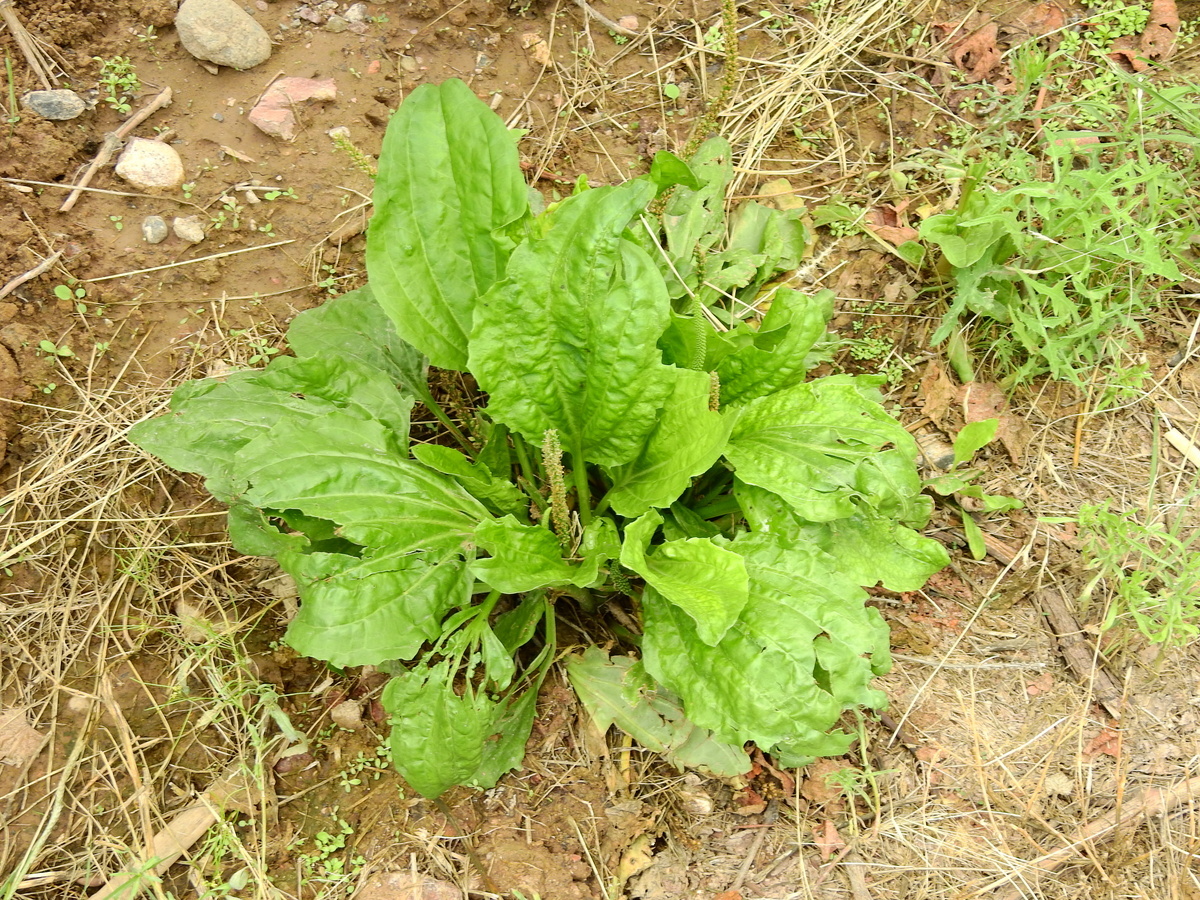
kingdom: Plantae
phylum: Tracheophyta
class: Magnoliopsida
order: Lamiales
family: Plantaginaceae
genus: Plantago
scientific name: Plantago major
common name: Common plantain
